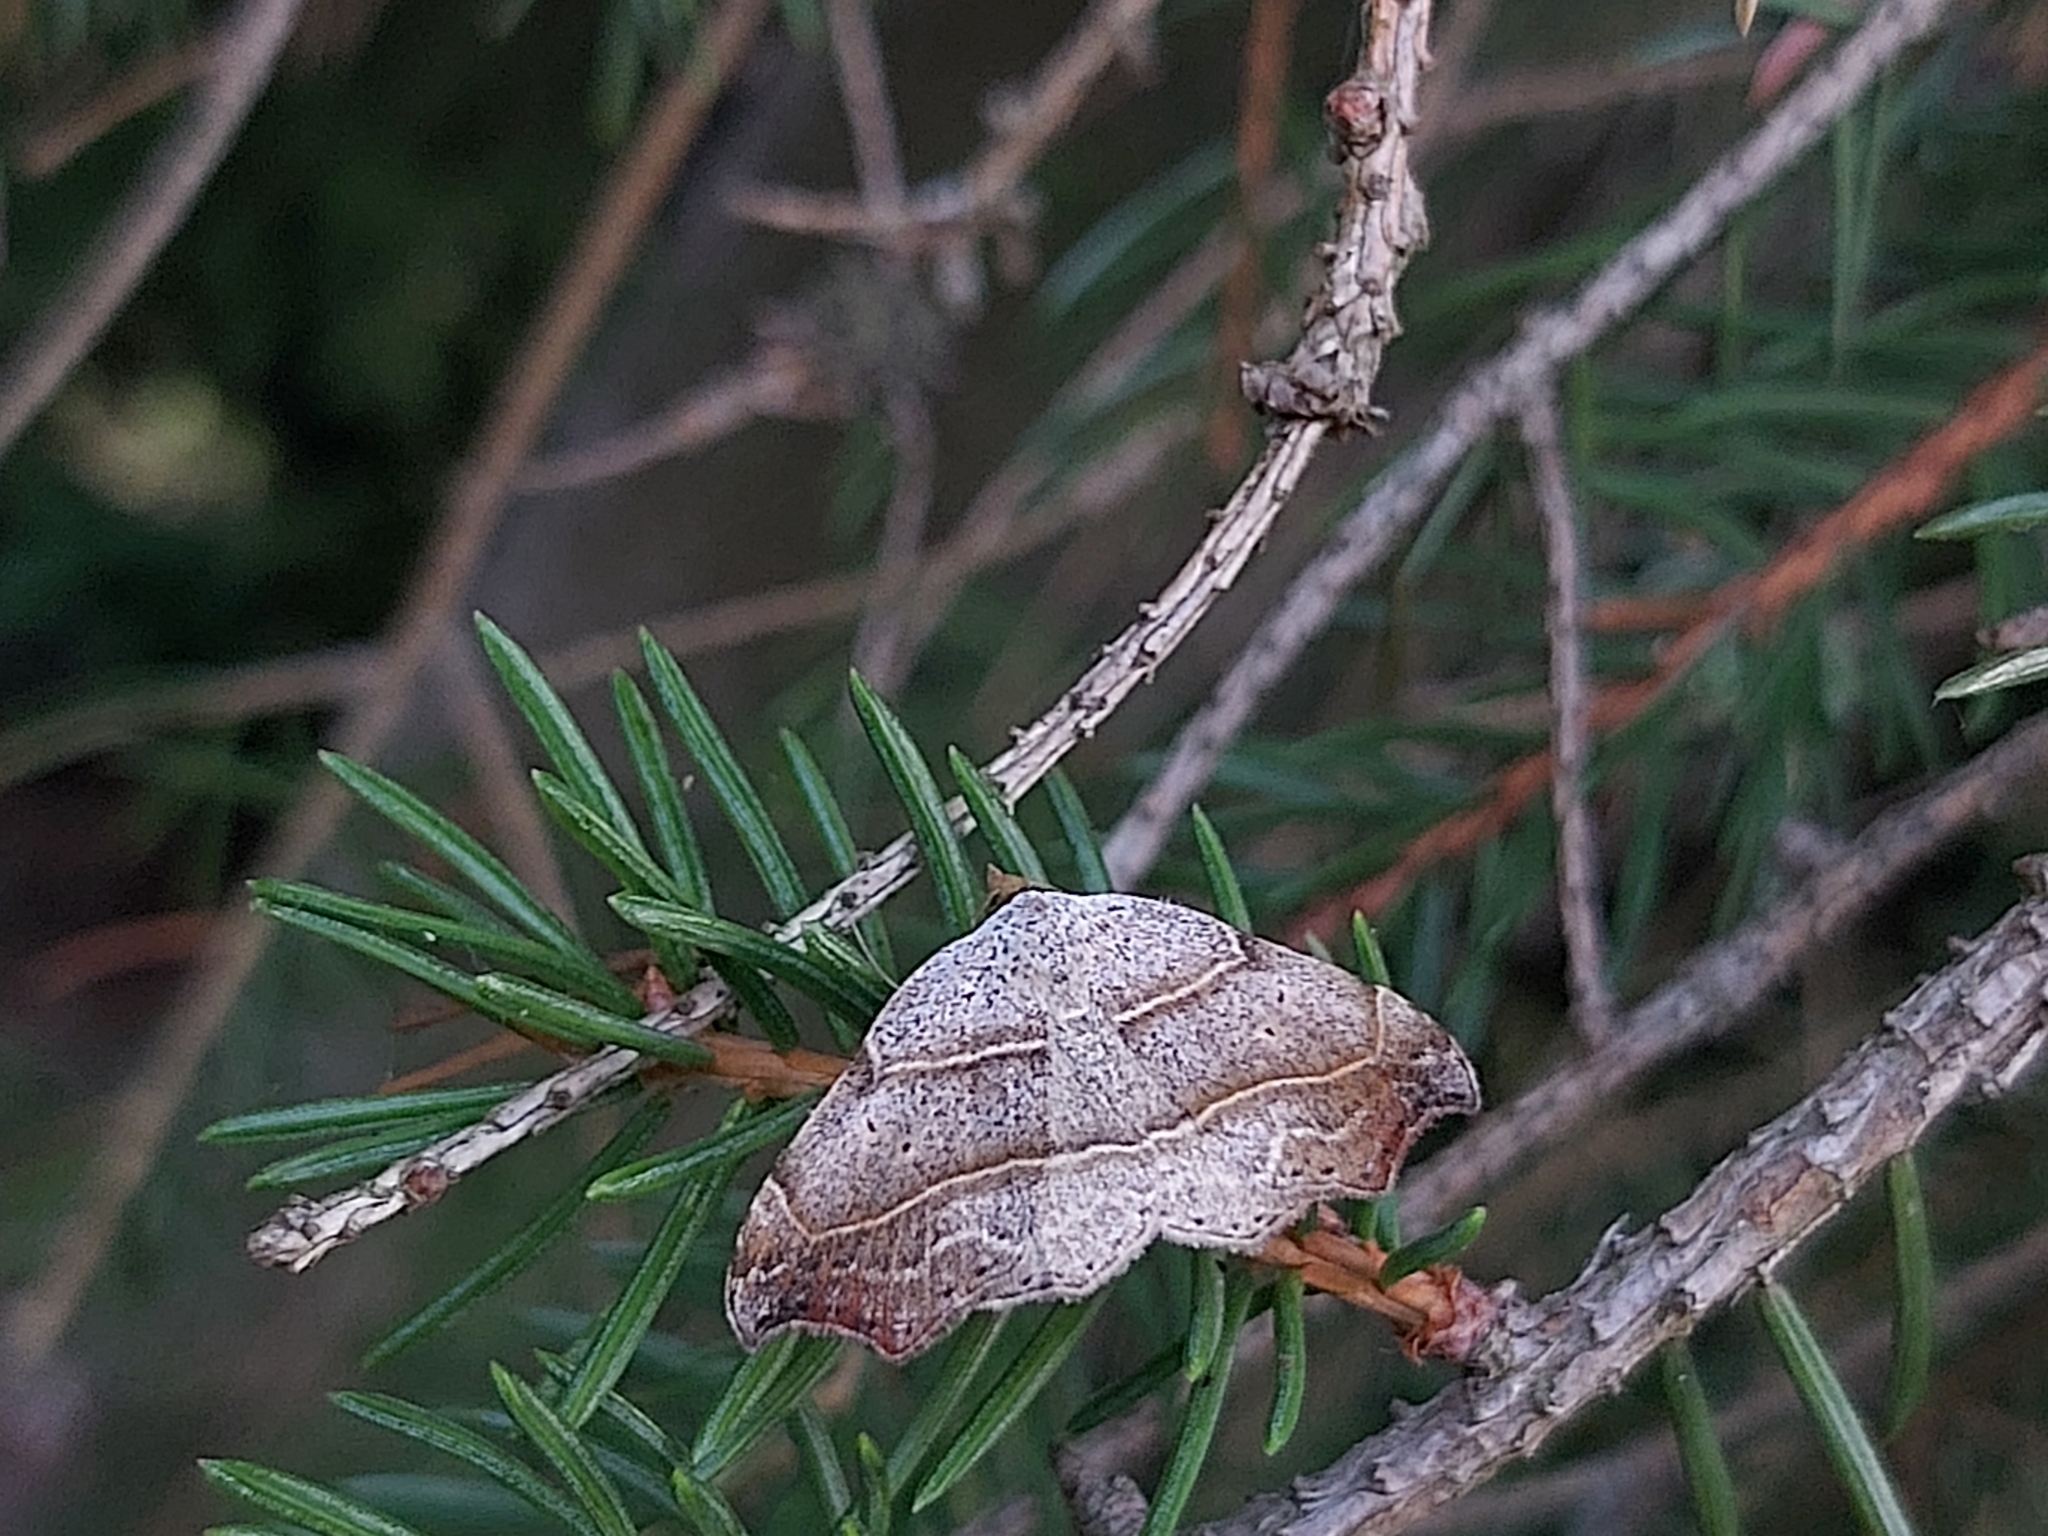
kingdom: Animalia
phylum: Arthropoda
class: Insecta
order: Lepidoptera
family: Erebidae
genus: Laspeyria
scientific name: Laspeyria flexula
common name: Beautiful hook-tip
